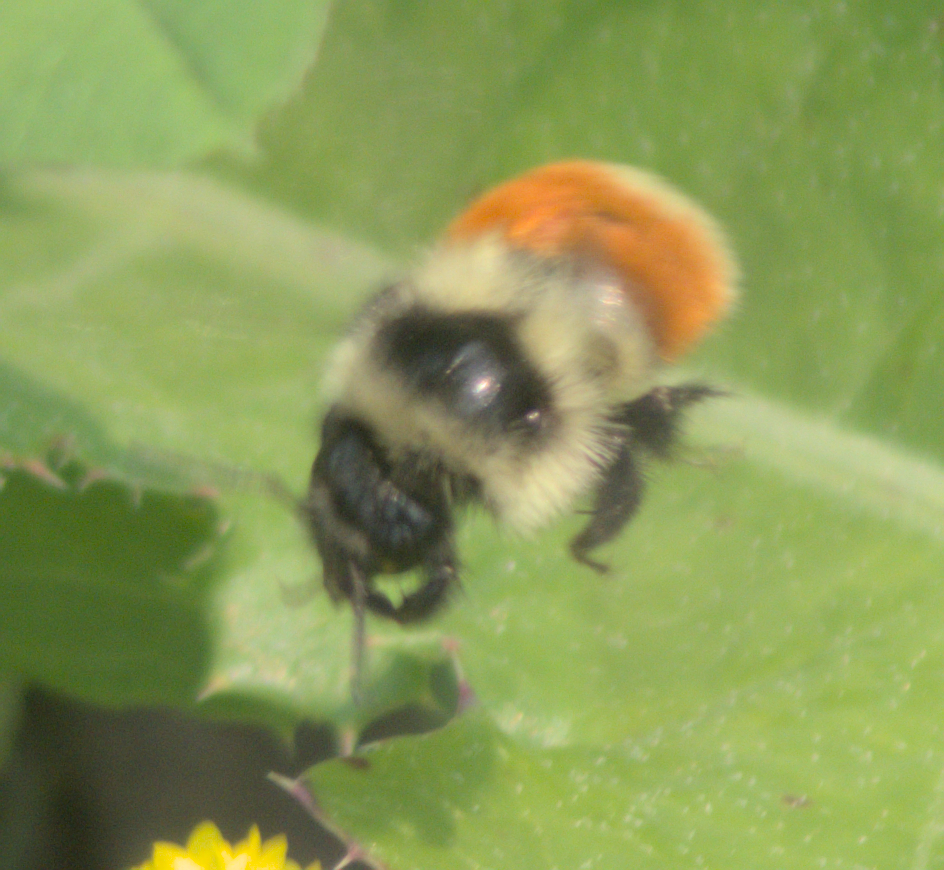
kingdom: Animalia
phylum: Arthropoda
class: Insecta
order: Hymenoptera
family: Apidae
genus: Bombus
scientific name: Bombus ternarius
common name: Tri-colored bumble bee
